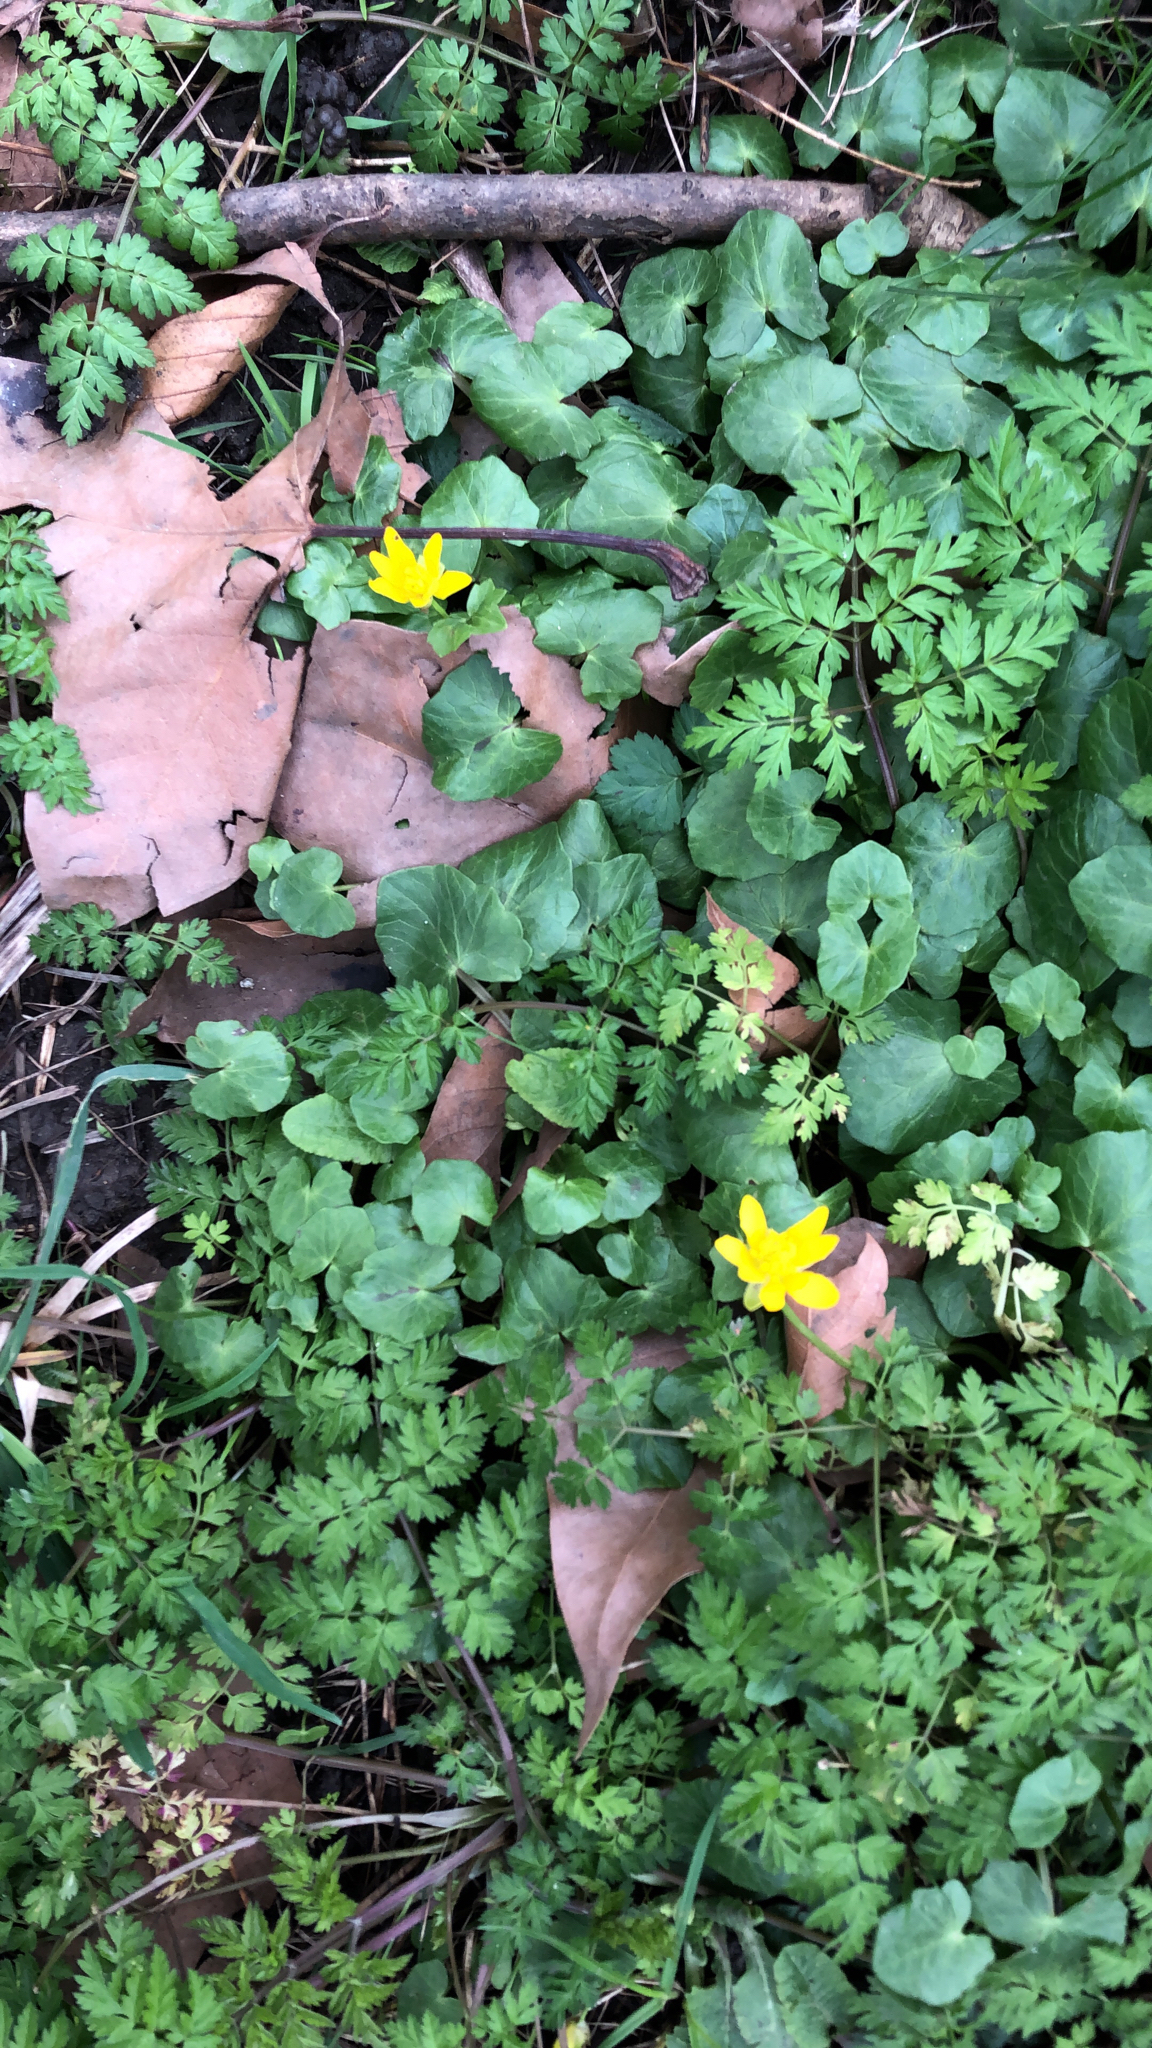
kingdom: Plantae
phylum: Tracheophyta
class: Magnoliopsida
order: Ranunculales
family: Ranunculaceae
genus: Ficaria
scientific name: Ficaria verna
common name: Lesser celandine
